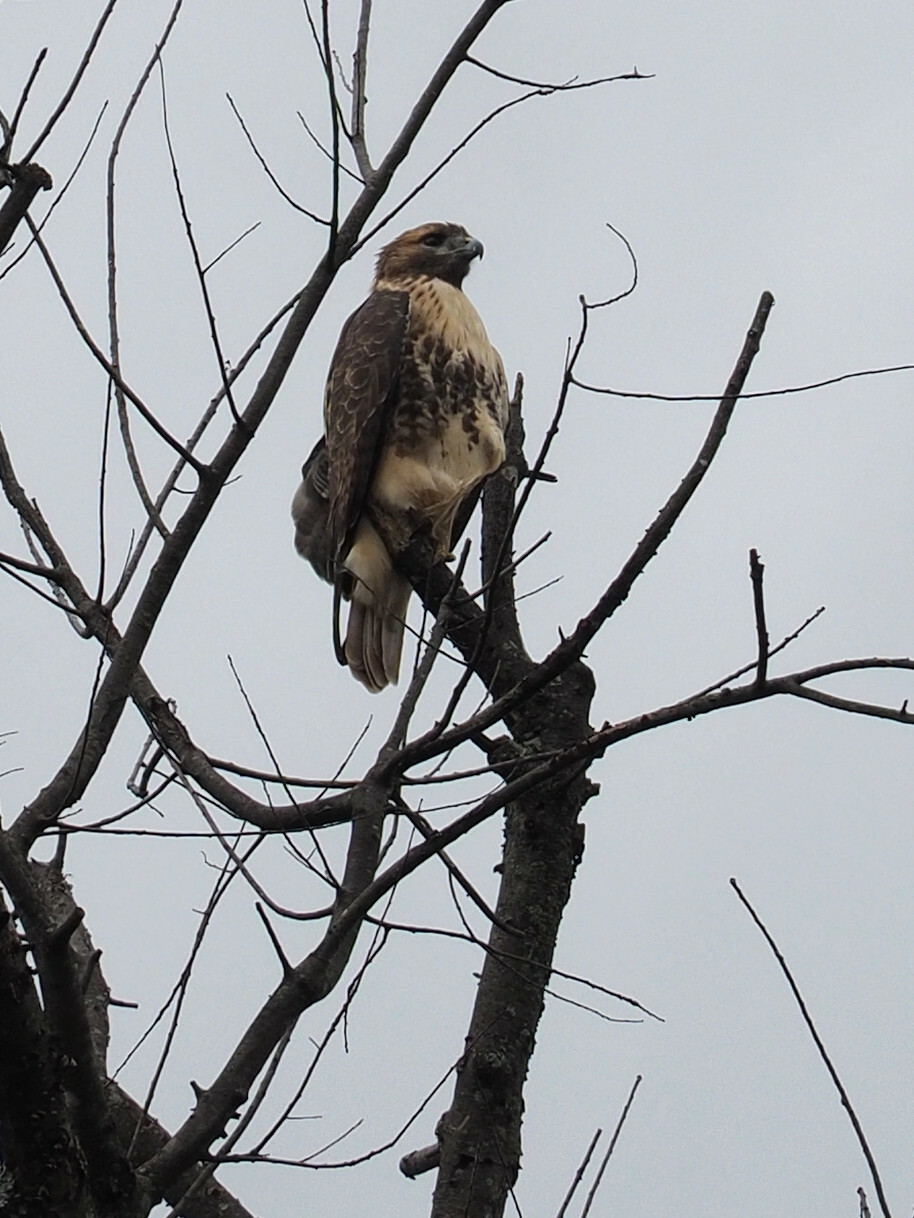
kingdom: Animalia
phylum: Chordata
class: Aves
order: Accipitriformes
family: Accipitridae
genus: Buteo
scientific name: Buteo jamaicensis
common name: Red-tailed hawk
